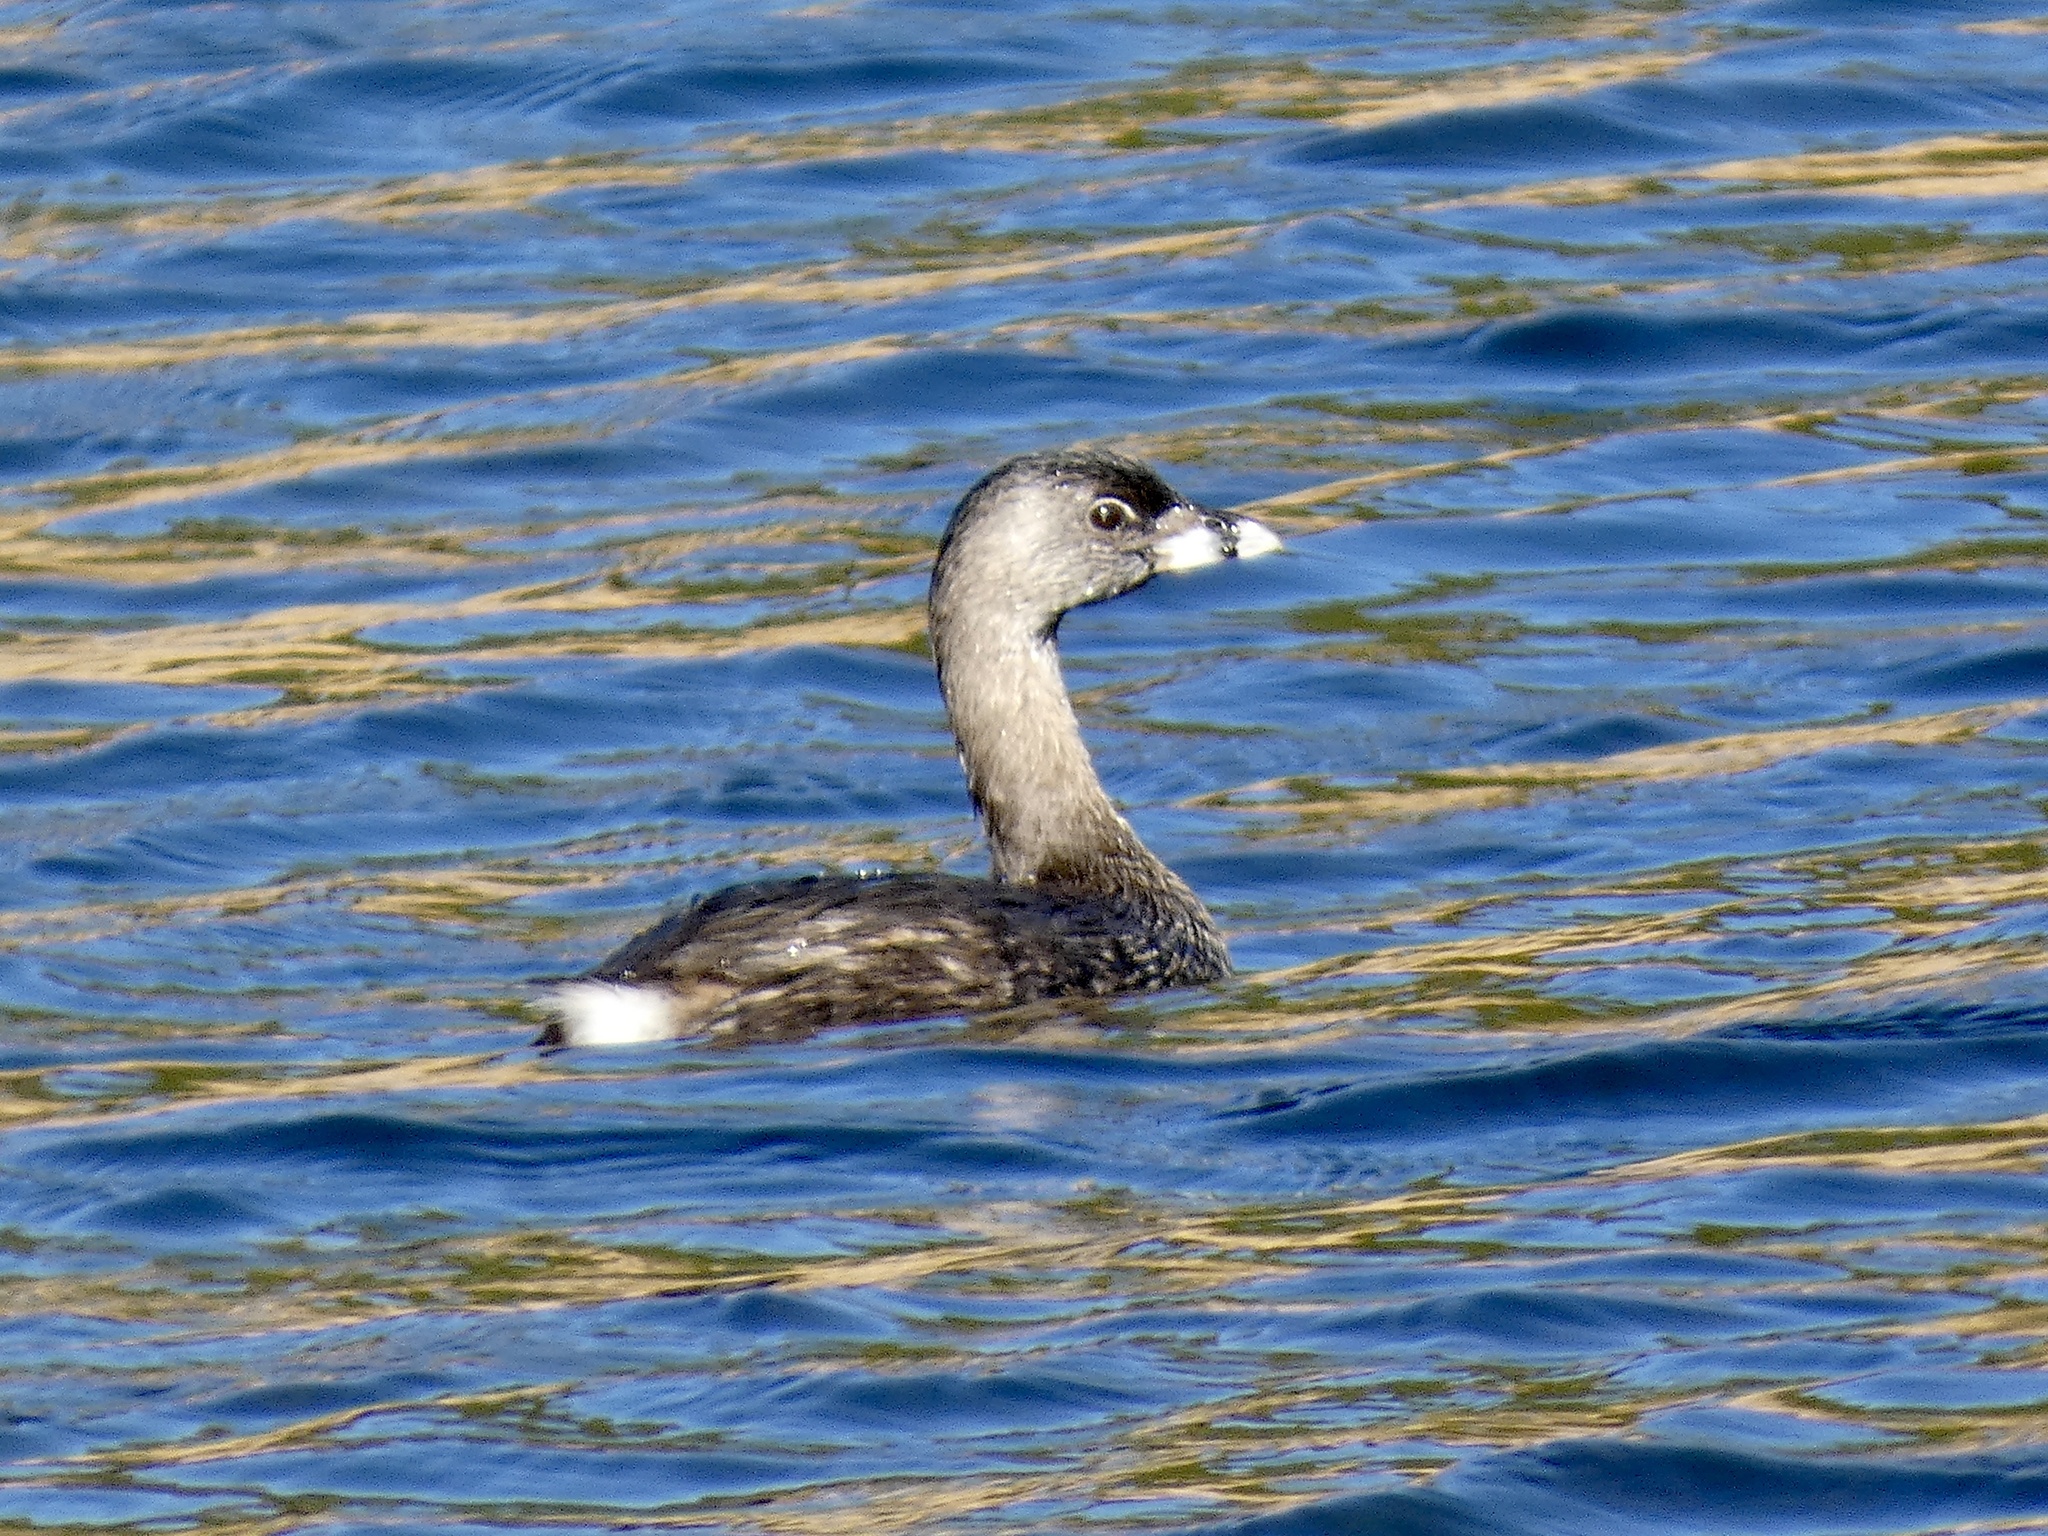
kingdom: Animalia
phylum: Chordata
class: Aves
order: Podicipediformes
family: Podicipedidae
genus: Podilymbus
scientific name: Podilymbus podiceps
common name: Pied-billed grebe
